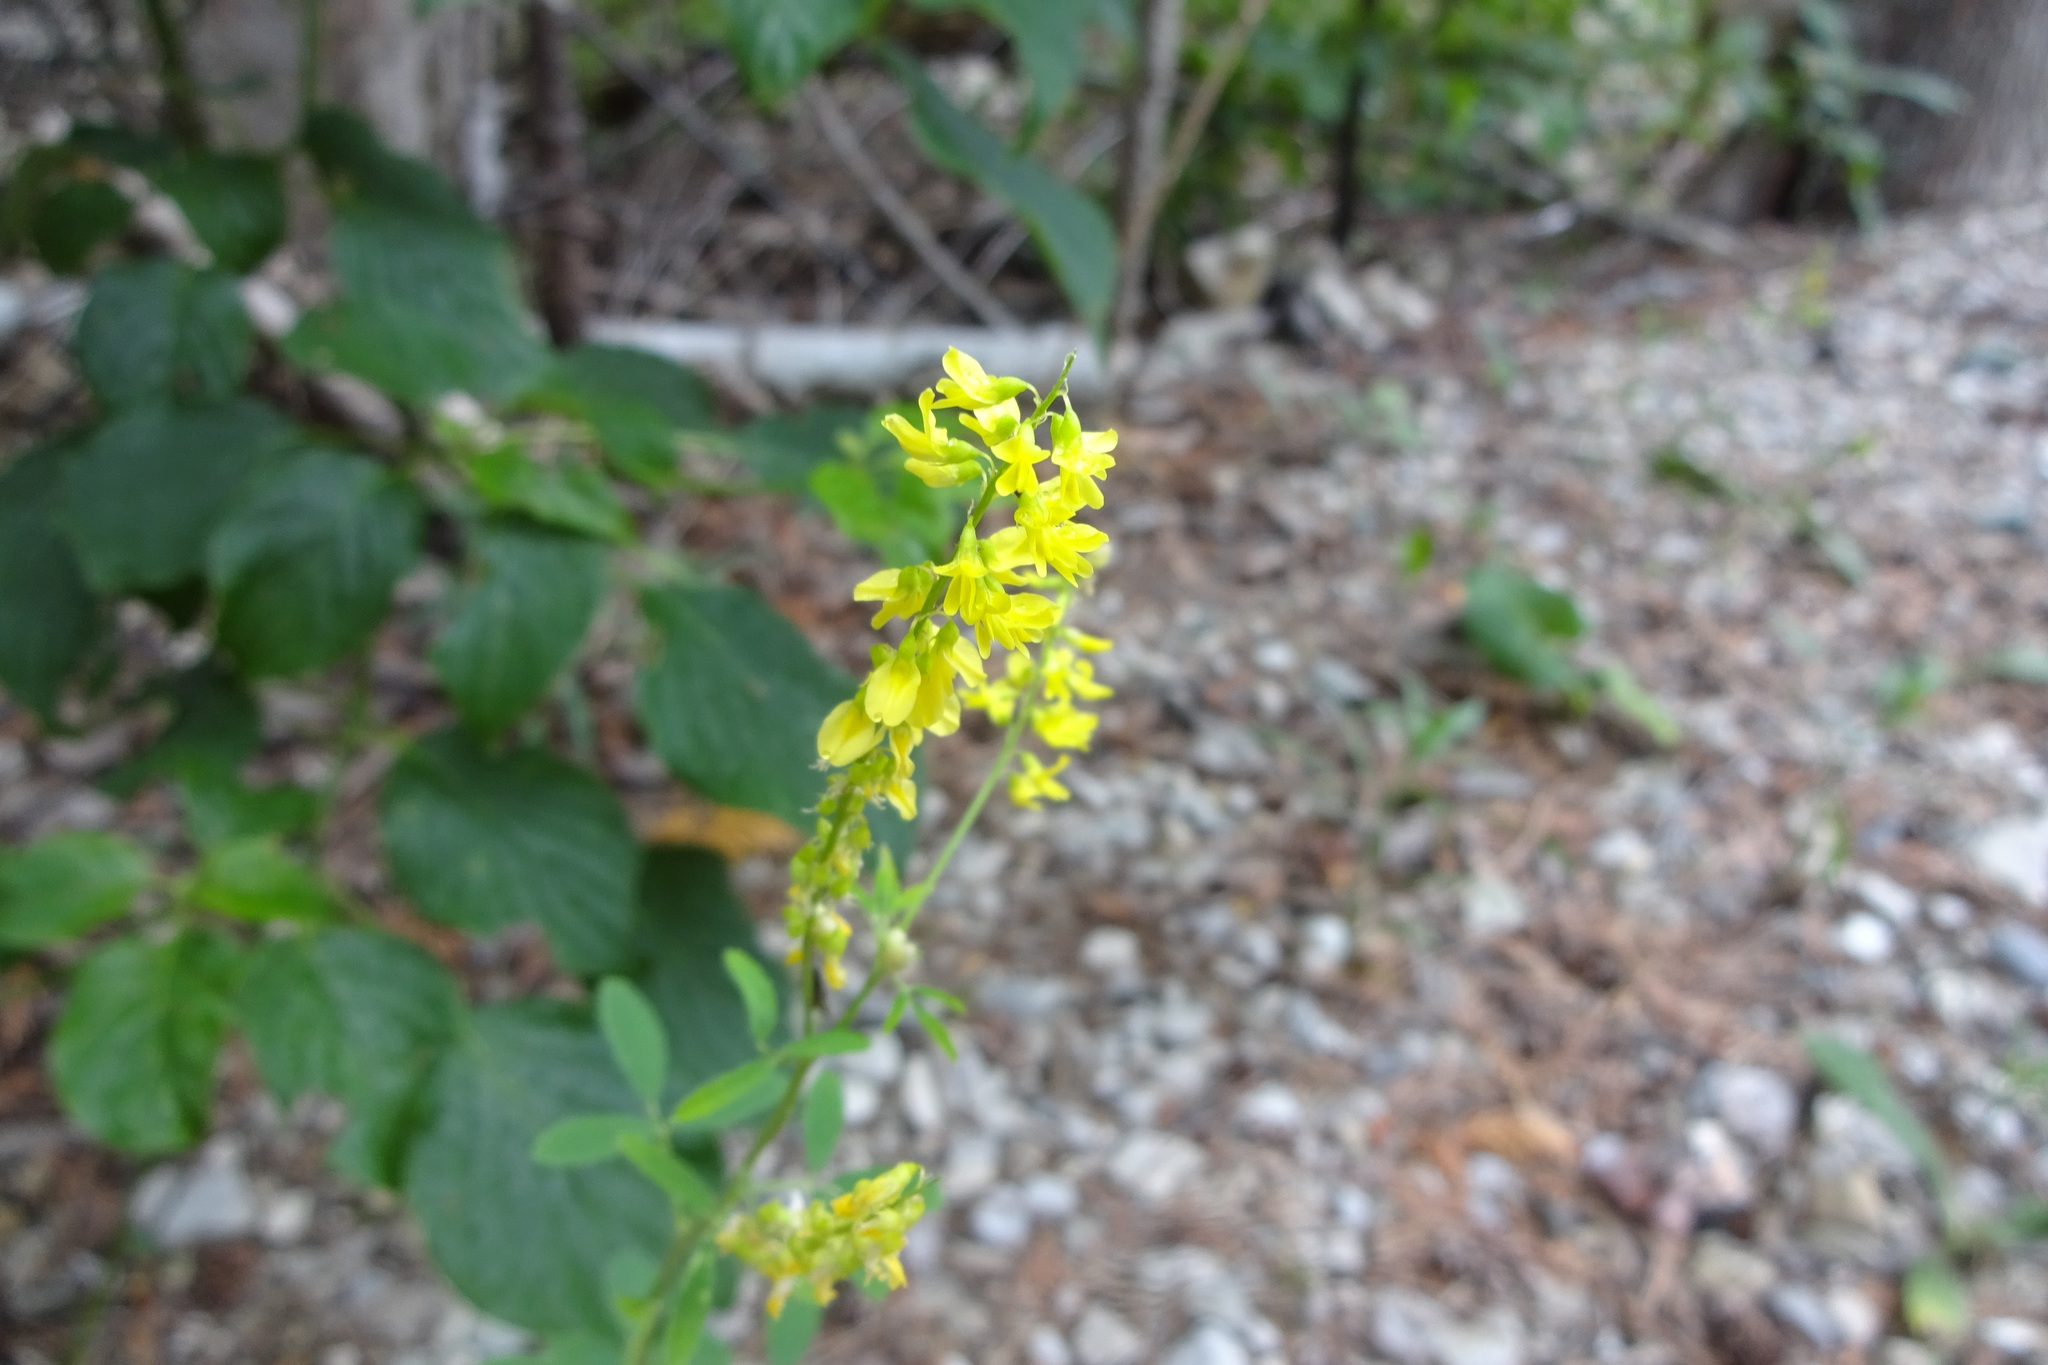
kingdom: Plantae
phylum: Tracheophyta
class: Magnoliopsida
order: Fabales
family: Fabaceae
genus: Melilotus
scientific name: Melilotus officinalis
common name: Sweetclover
